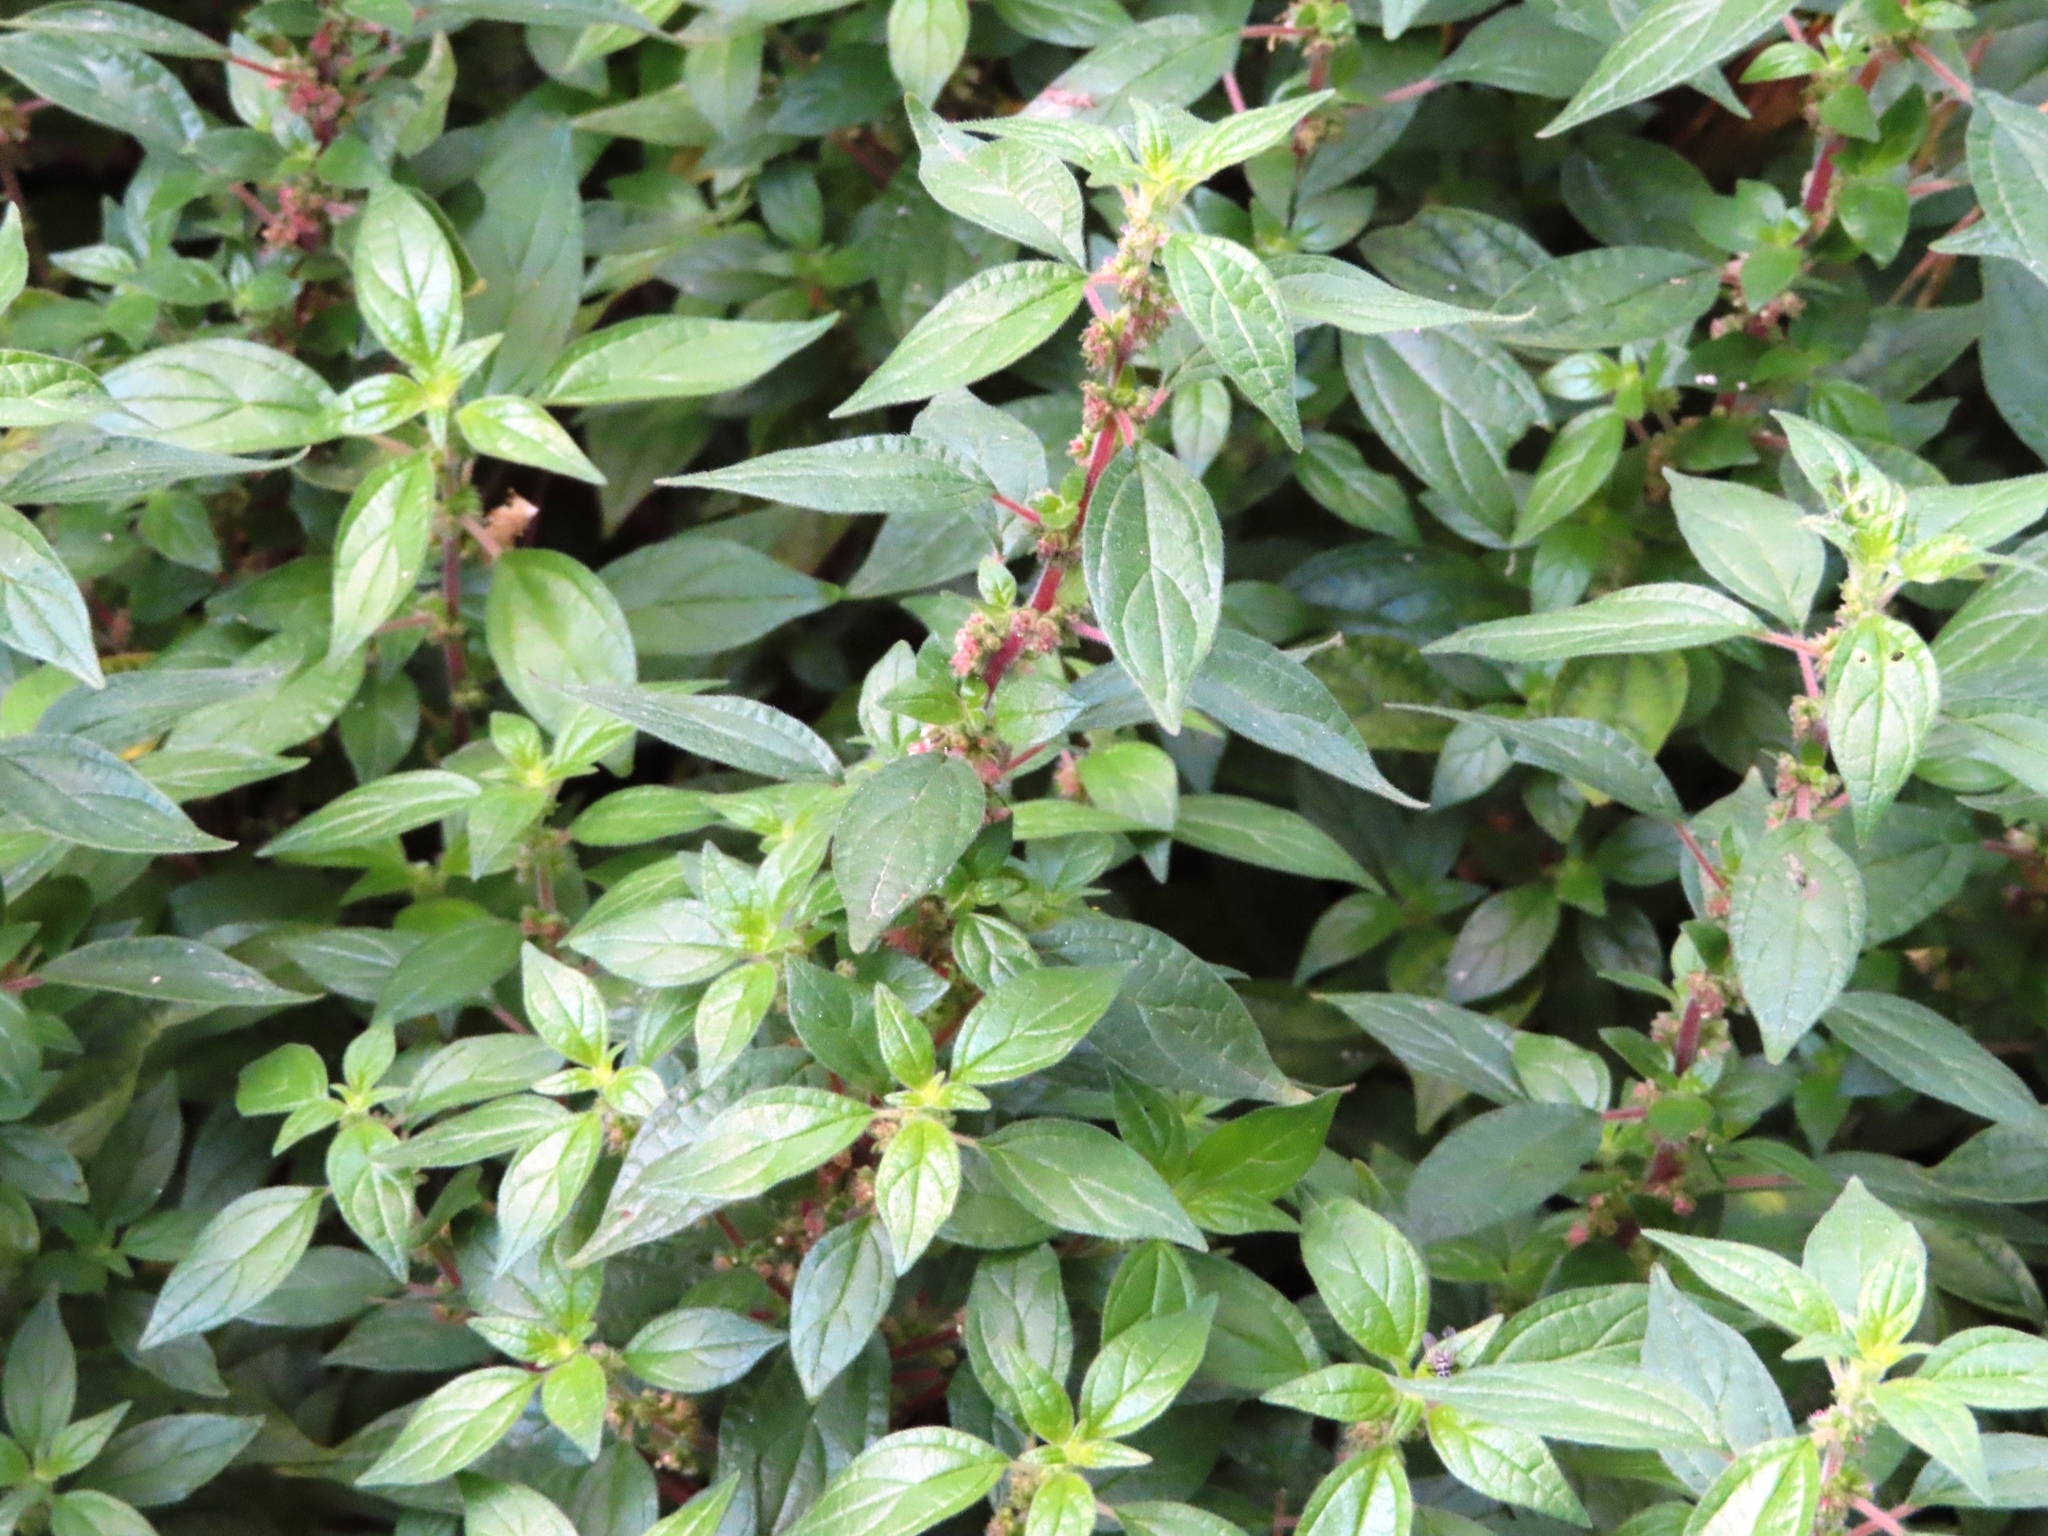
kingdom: Plantae
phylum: Tracheophyta
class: Magnoliopsida
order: Rosales
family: Urticaceae
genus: Parietaria
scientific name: Parietaria judaica
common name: Pellitory-of-the-wall
